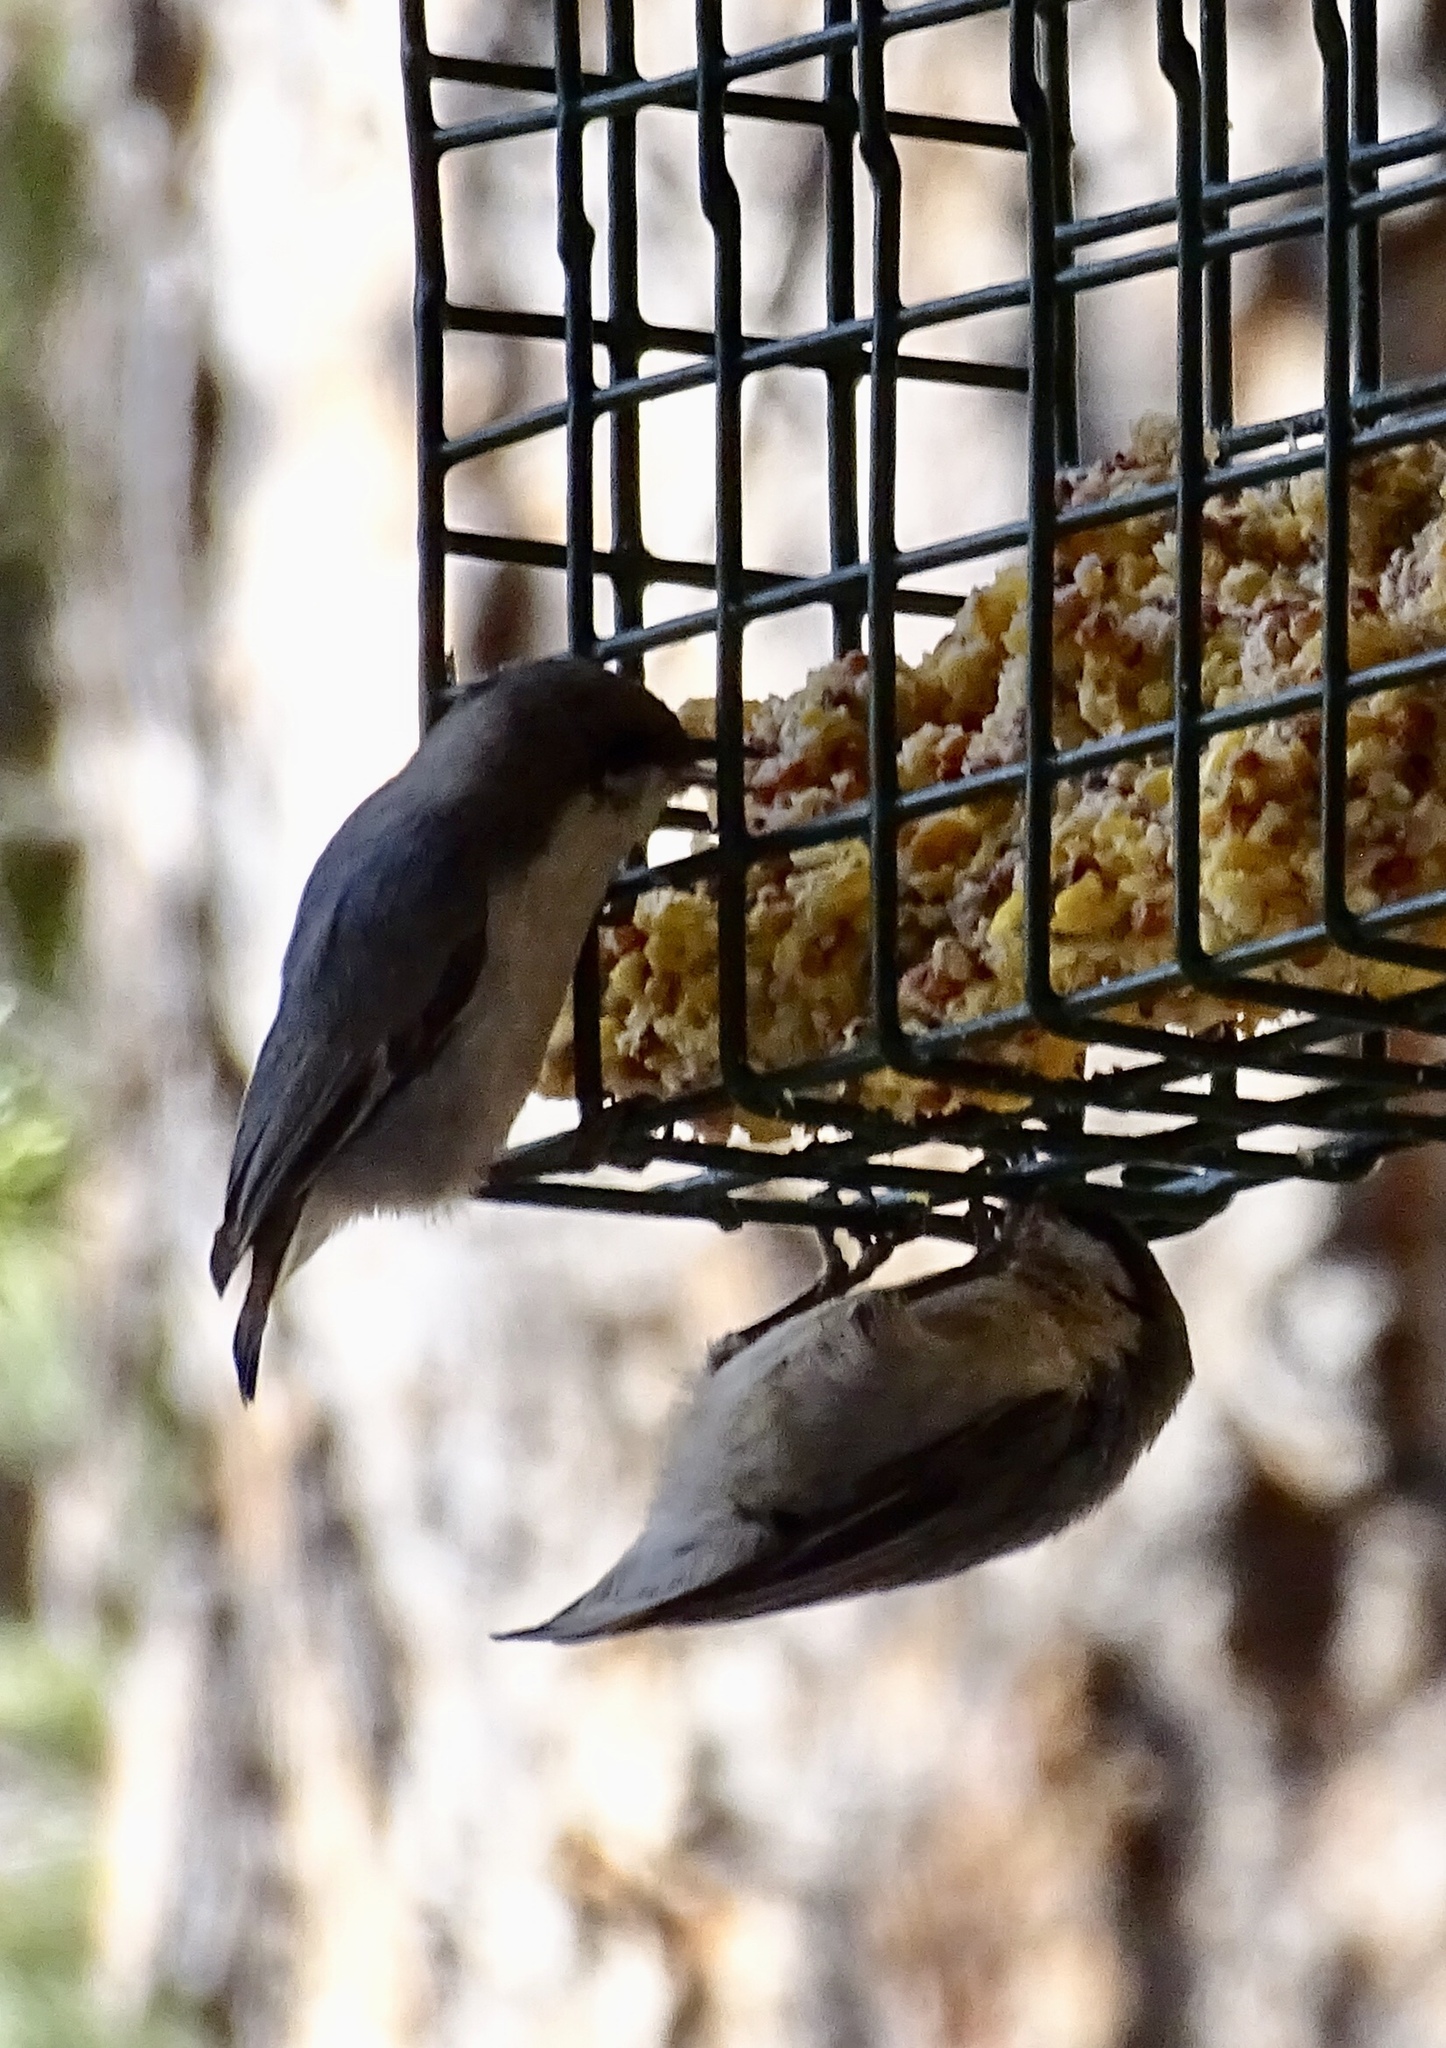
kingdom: Animalia
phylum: Chordata
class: Aves
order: Passeriformes
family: Sittidae
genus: Sitta
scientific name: Sitta pygmaea
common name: Pygmy nuthatch
